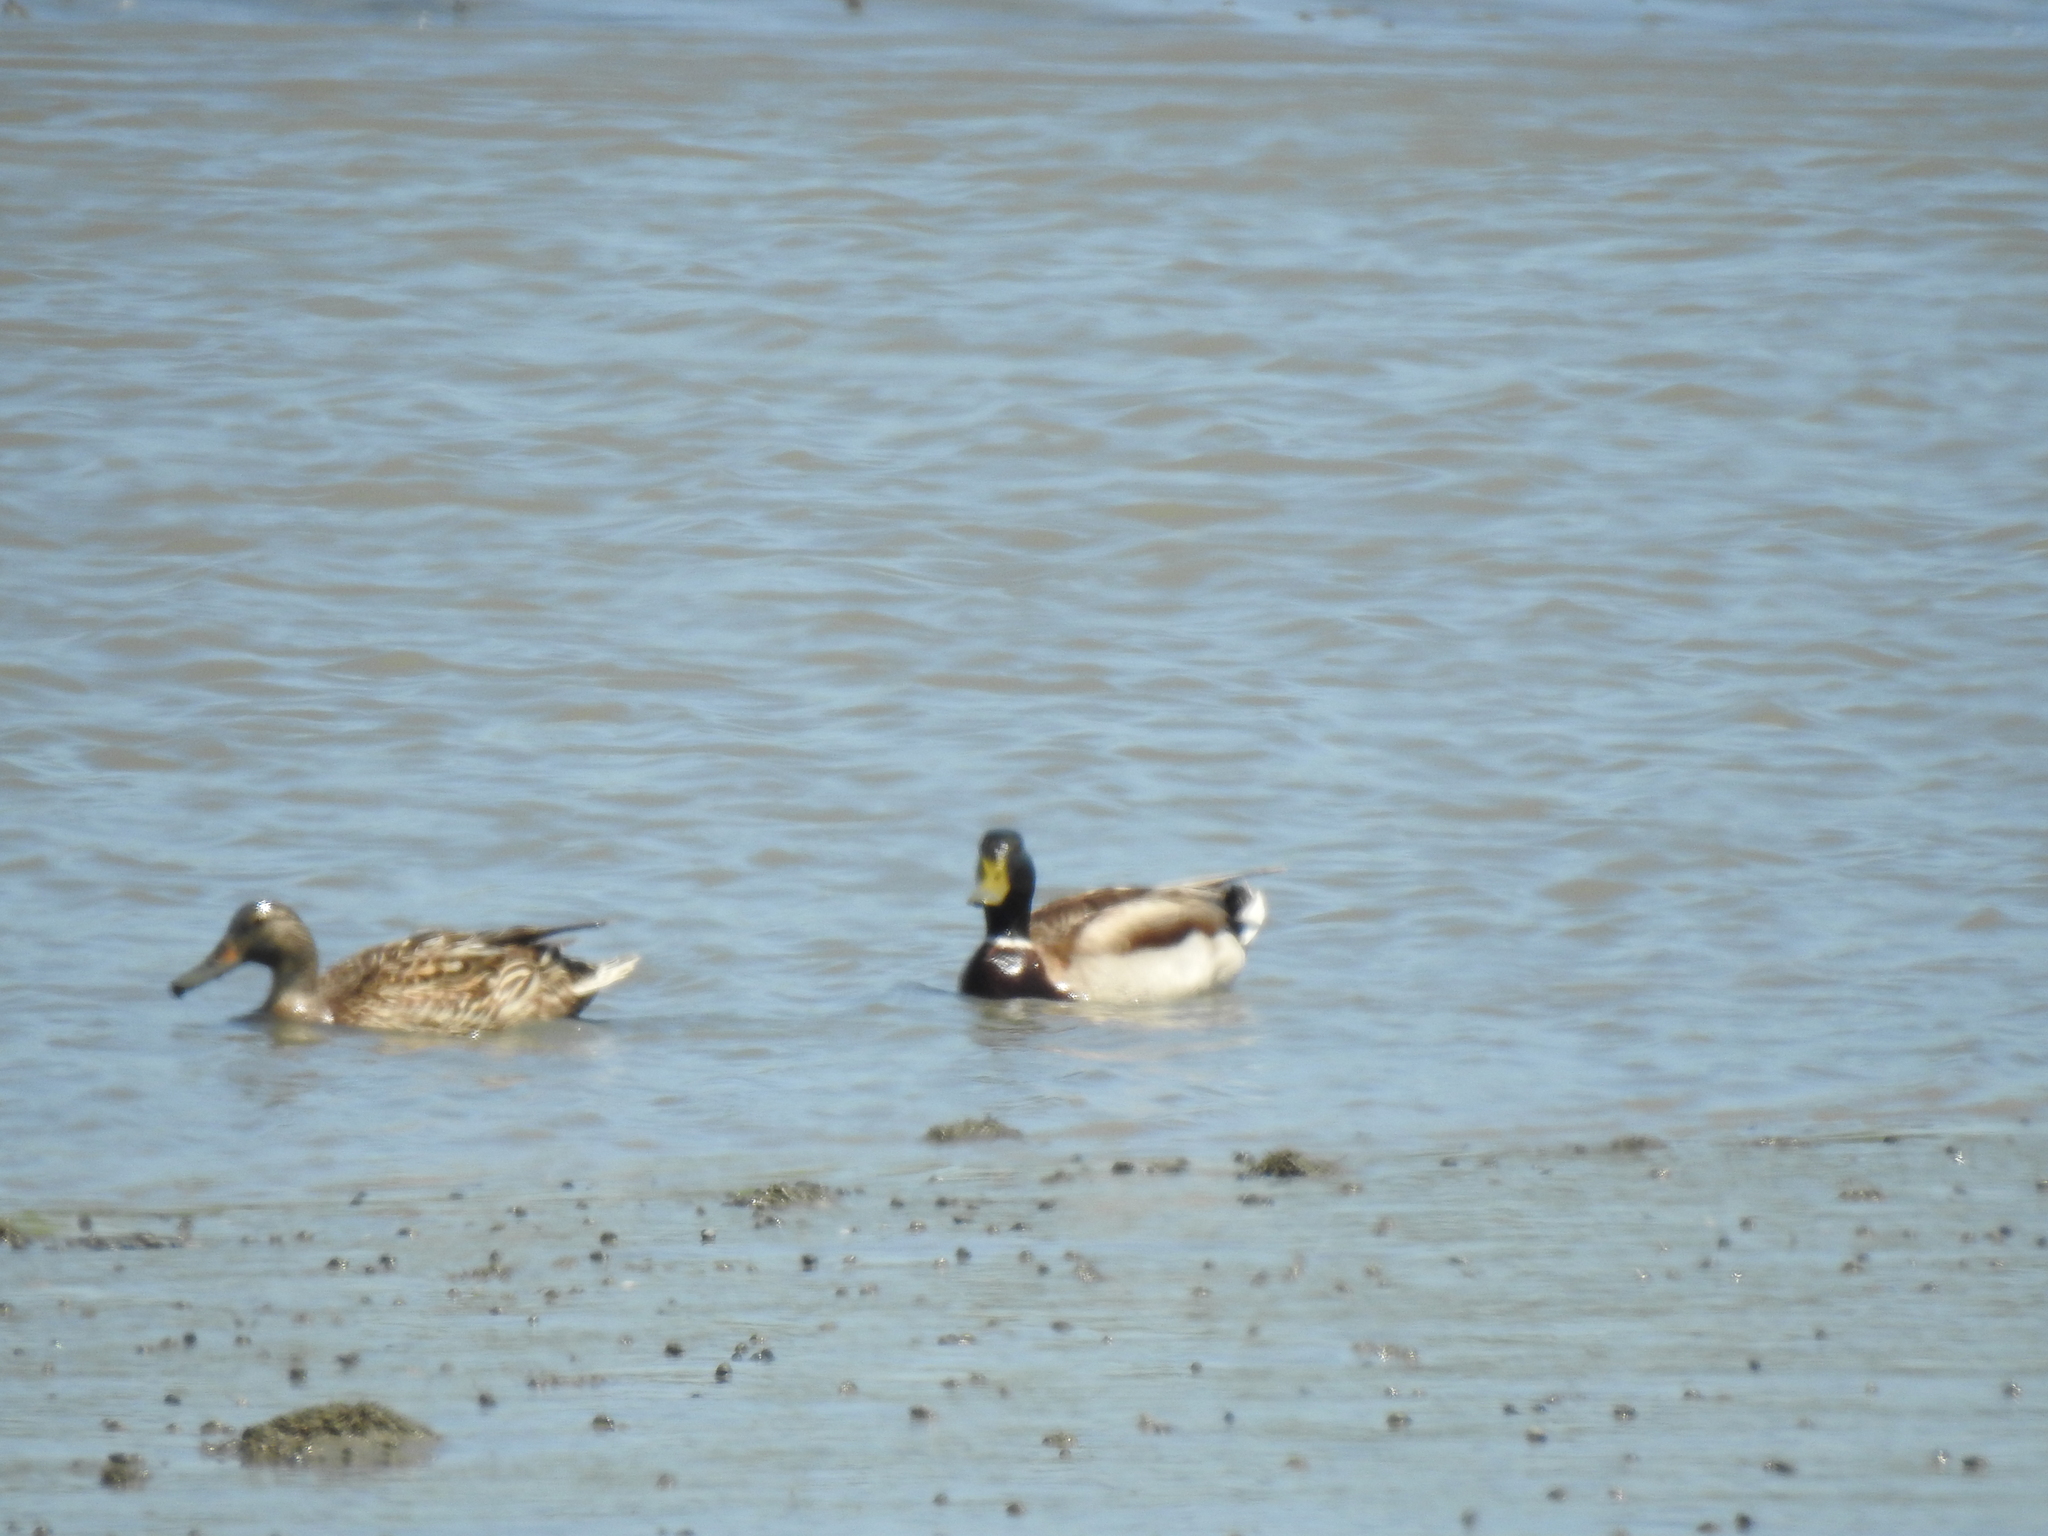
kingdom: Animalia
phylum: Chordata
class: Aves
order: Anseriformes
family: Anatidae
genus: Anas
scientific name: Anas platyrhynchos
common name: Mallard
